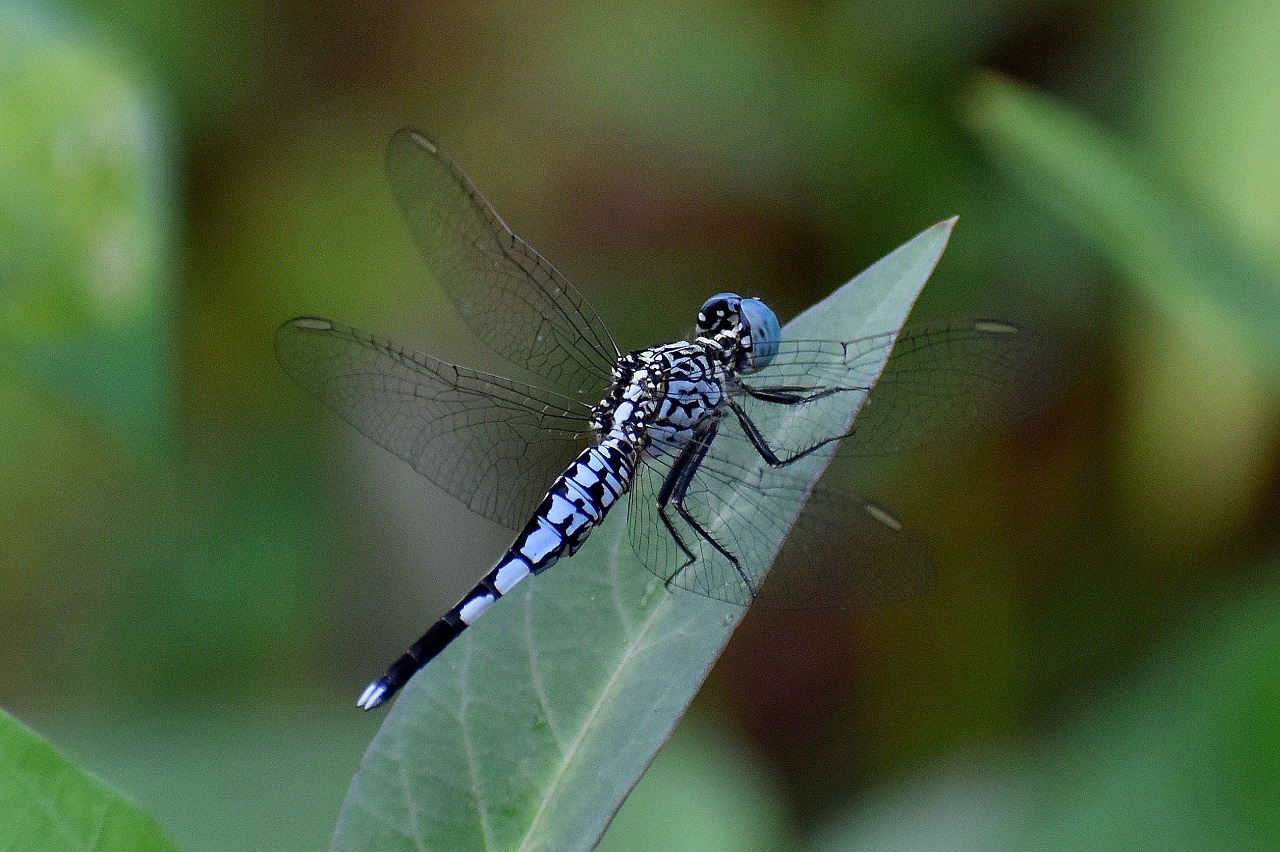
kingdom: Animalia
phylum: Arthropoda
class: Insecta
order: Odonata
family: Libellulidae
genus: Acisoma
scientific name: Acisoma panorpoides
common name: Asian pintail
